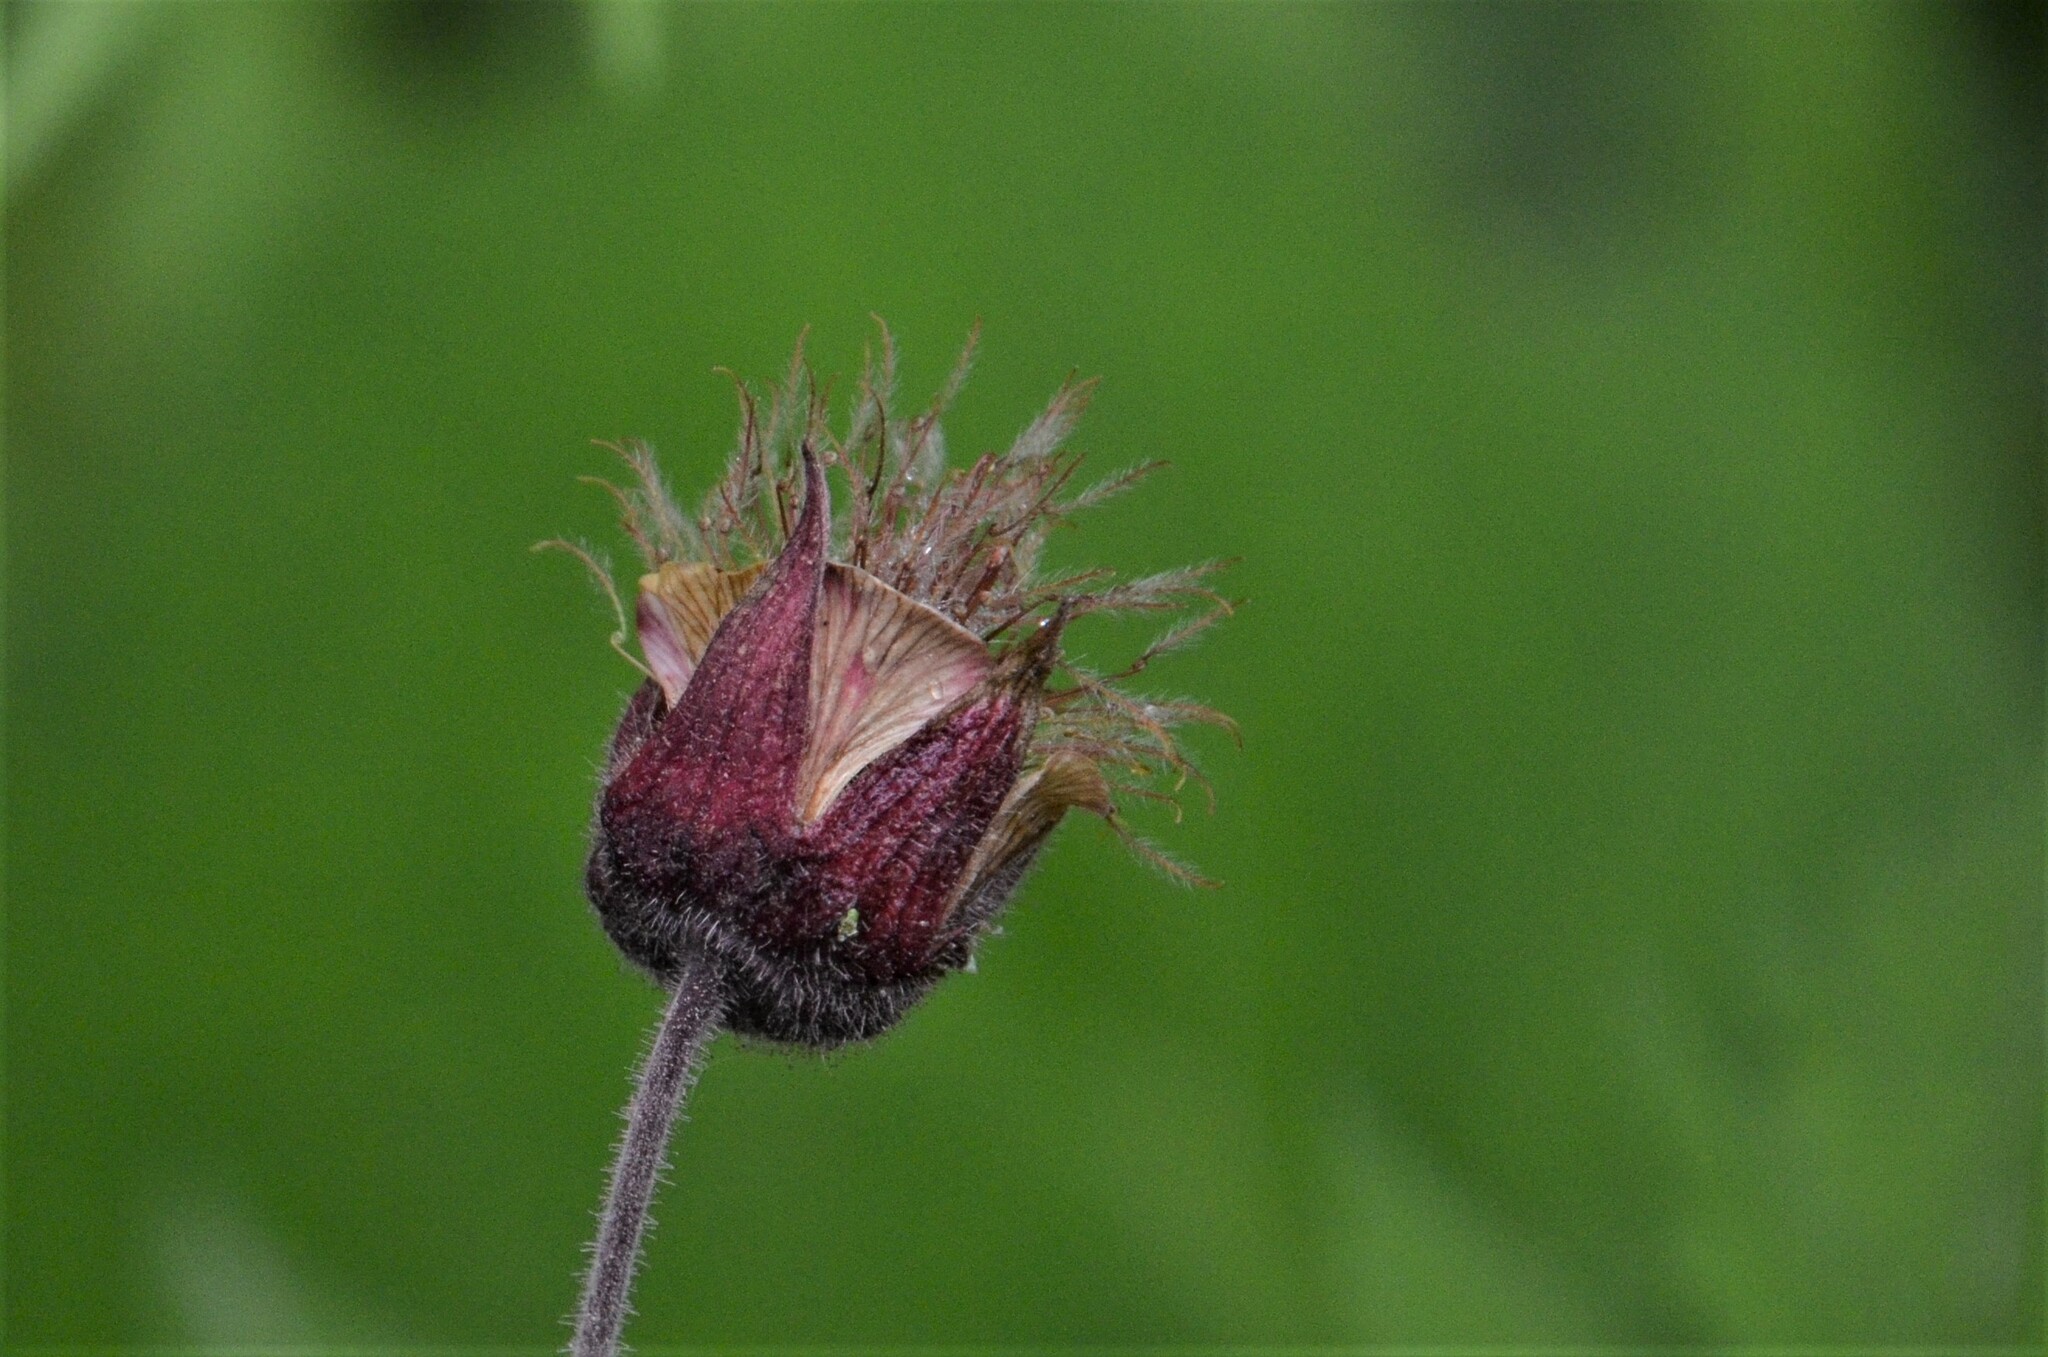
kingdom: Plantae
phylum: Tracheophyta
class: Magnoliopsida
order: Rosales
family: Rosaceae
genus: Geum
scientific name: Geum rivale
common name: Water avens
